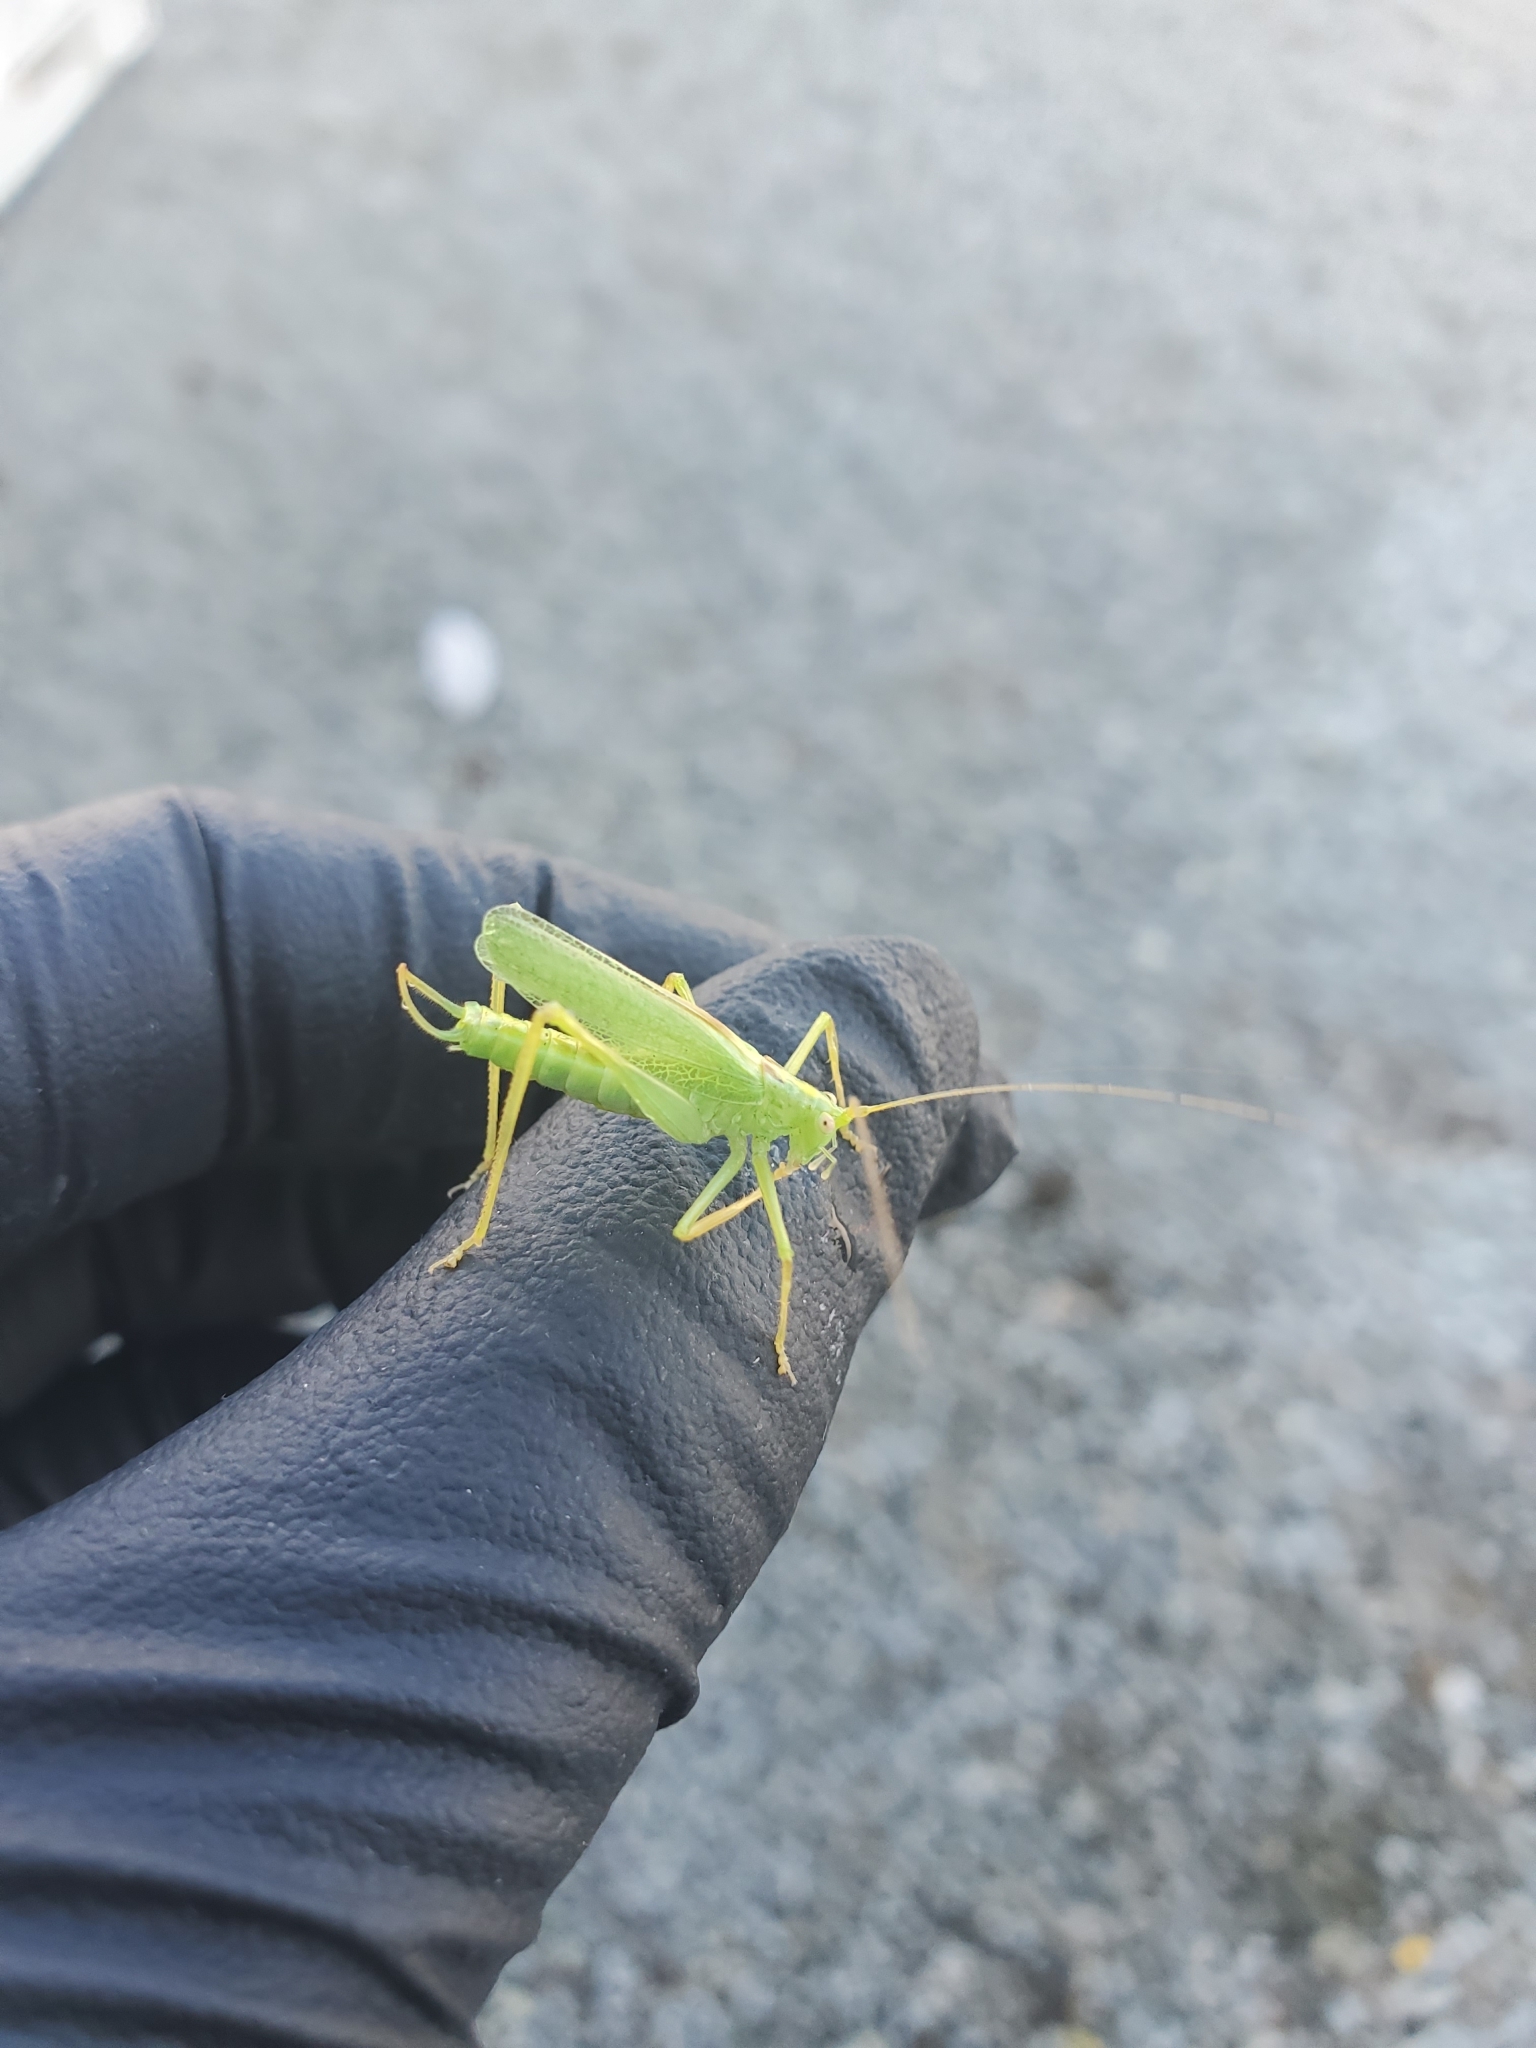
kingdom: Animalia
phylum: Arthropoda
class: Insecta
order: Orthoptera
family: Tettigoniidae
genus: Meconema
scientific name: Meconema thalassinum
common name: Oak bush-cricket
